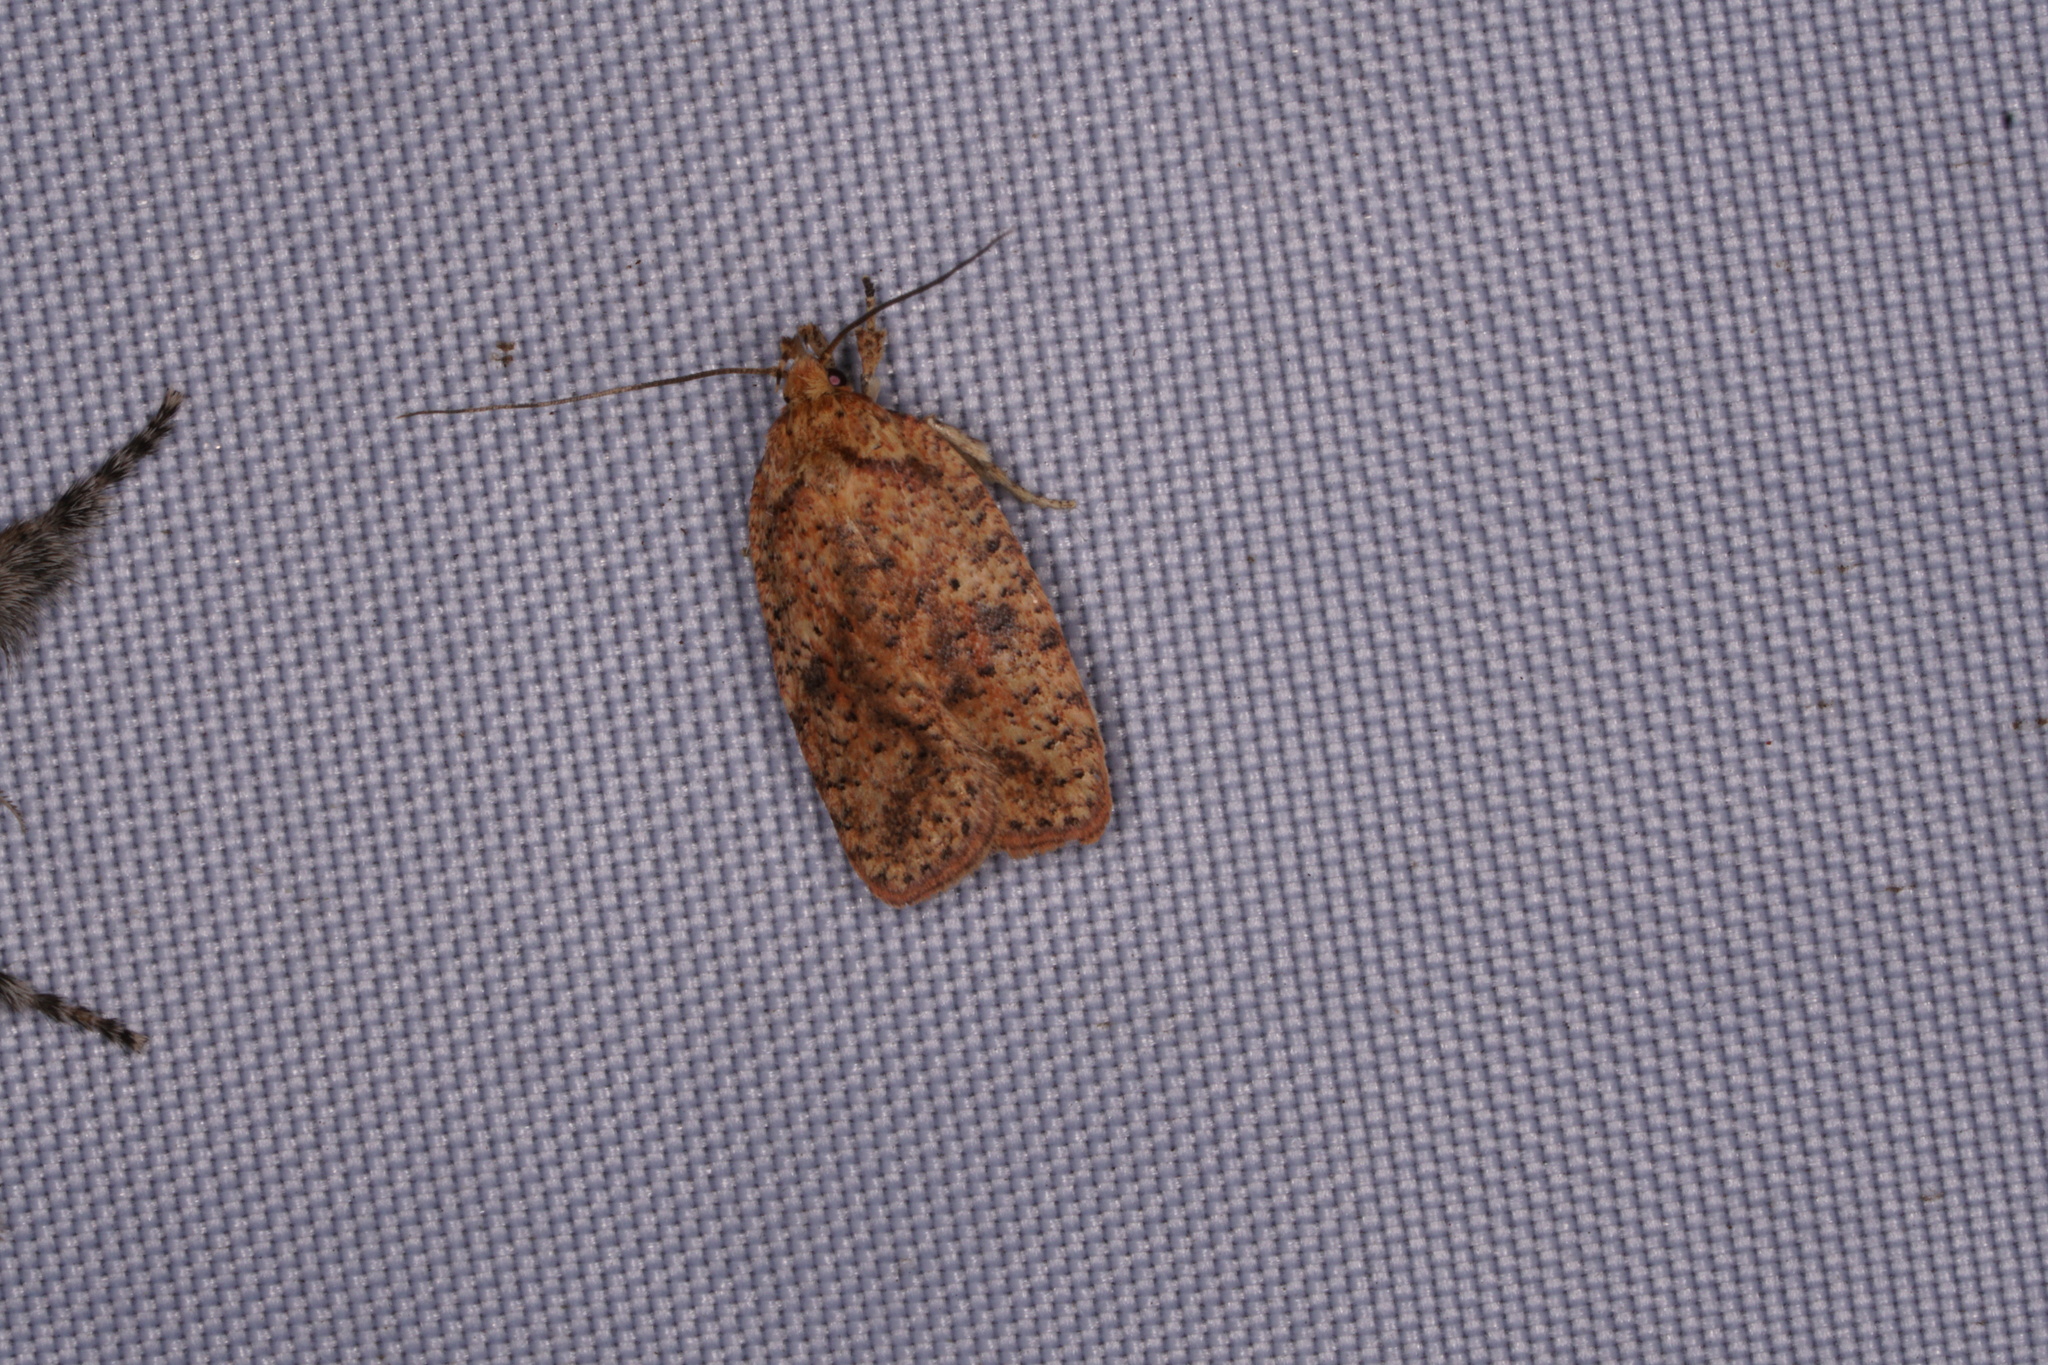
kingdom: Animalia
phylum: Arthropoda
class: Insecta
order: Lepidoptera
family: Depressariidae
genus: Agonopterix
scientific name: Agonopterix robiniella
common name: Four-dotted agonopterix moth
